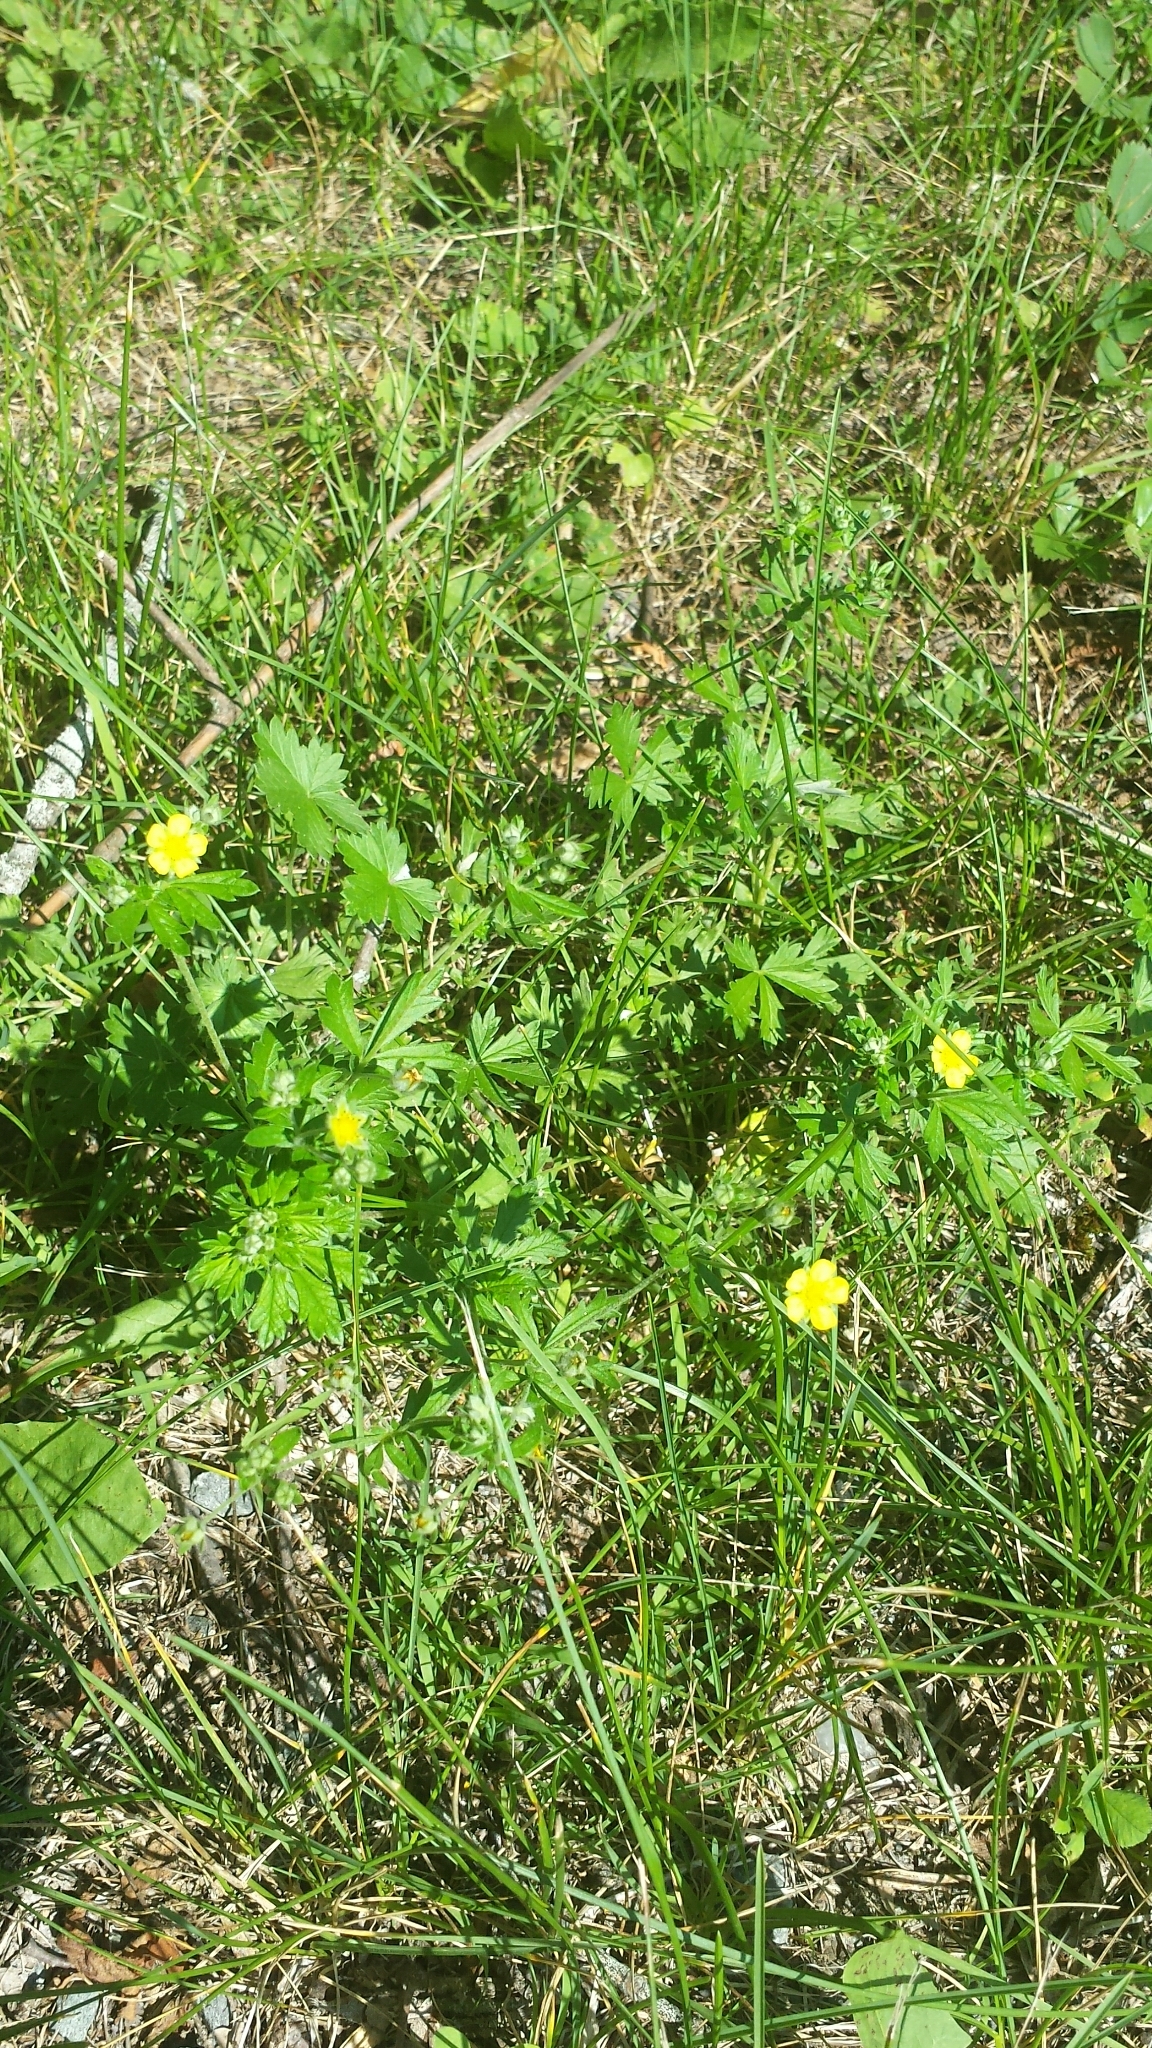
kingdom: Plantae
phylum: Tracheophyta
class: Magnoliopsida
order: Rosales
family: Rosaceae
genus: Potentilla
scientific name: Potentilla argentea
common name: Hoary cinquefoil
